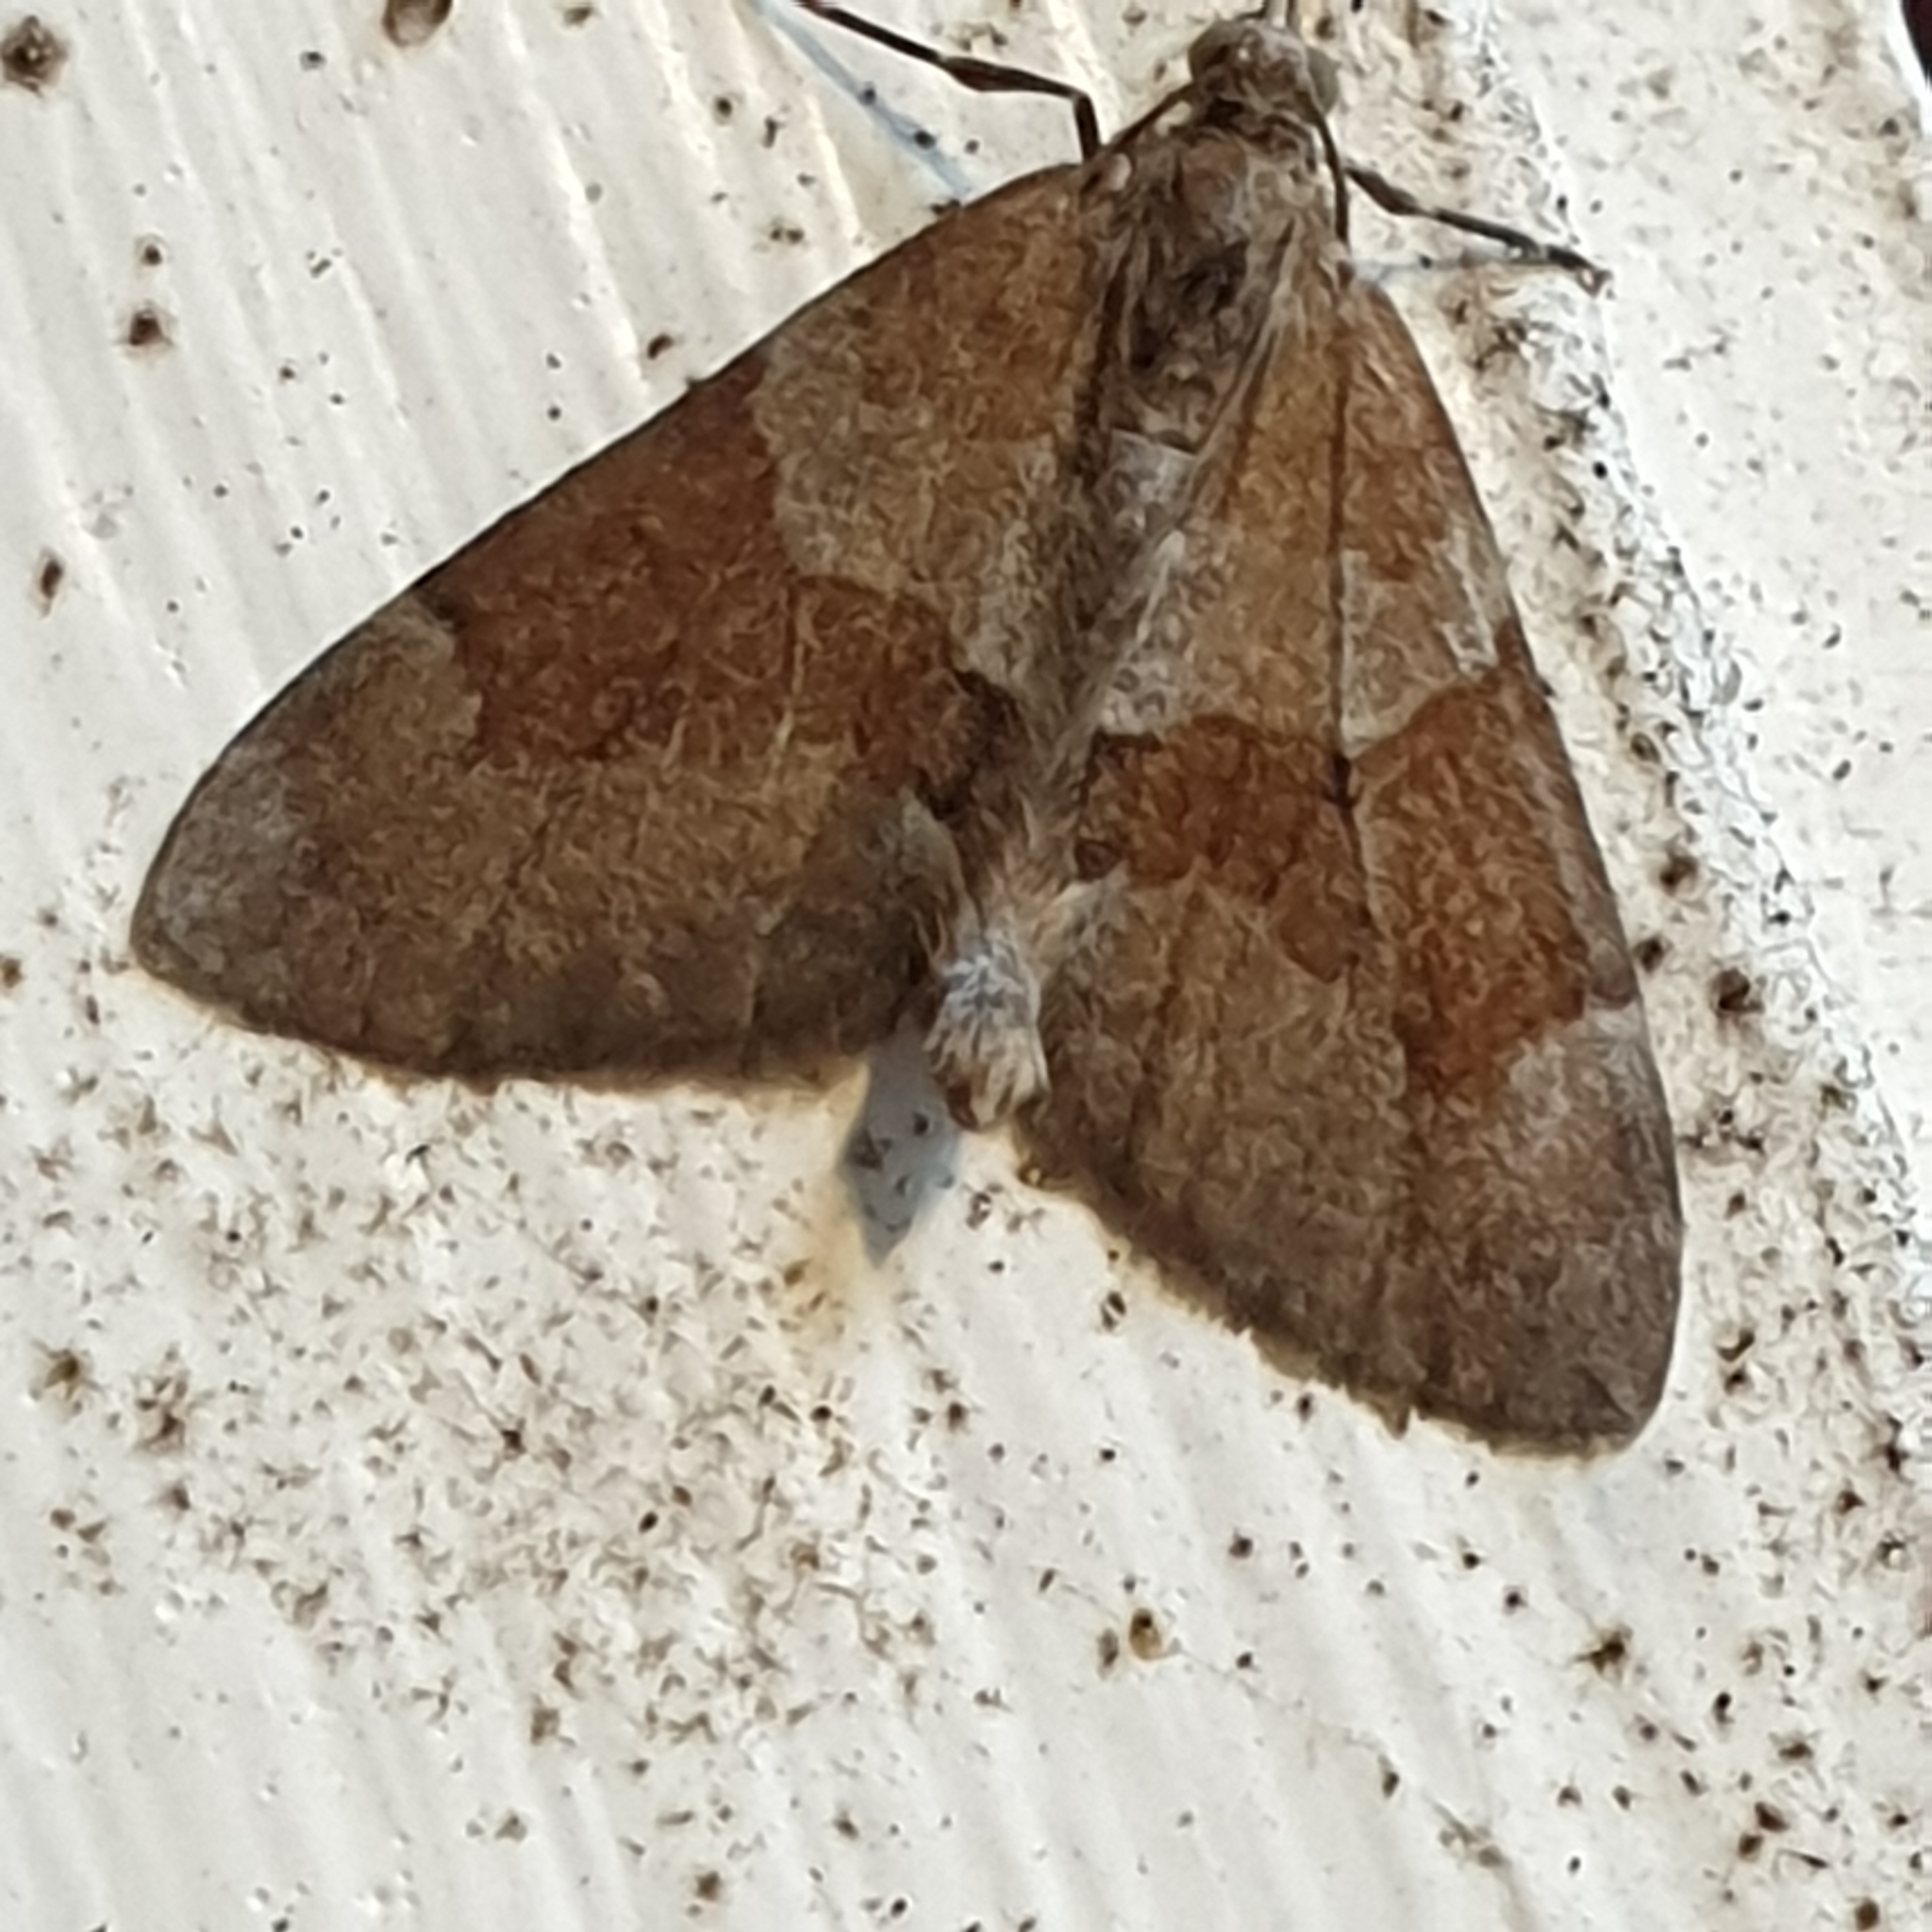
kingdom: Animalia
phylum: Arthropoda
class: Insecta
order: Lepidoptera
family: Geometridae
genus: Thera
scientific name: Thera obeliscata
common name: Grey pine carpet
